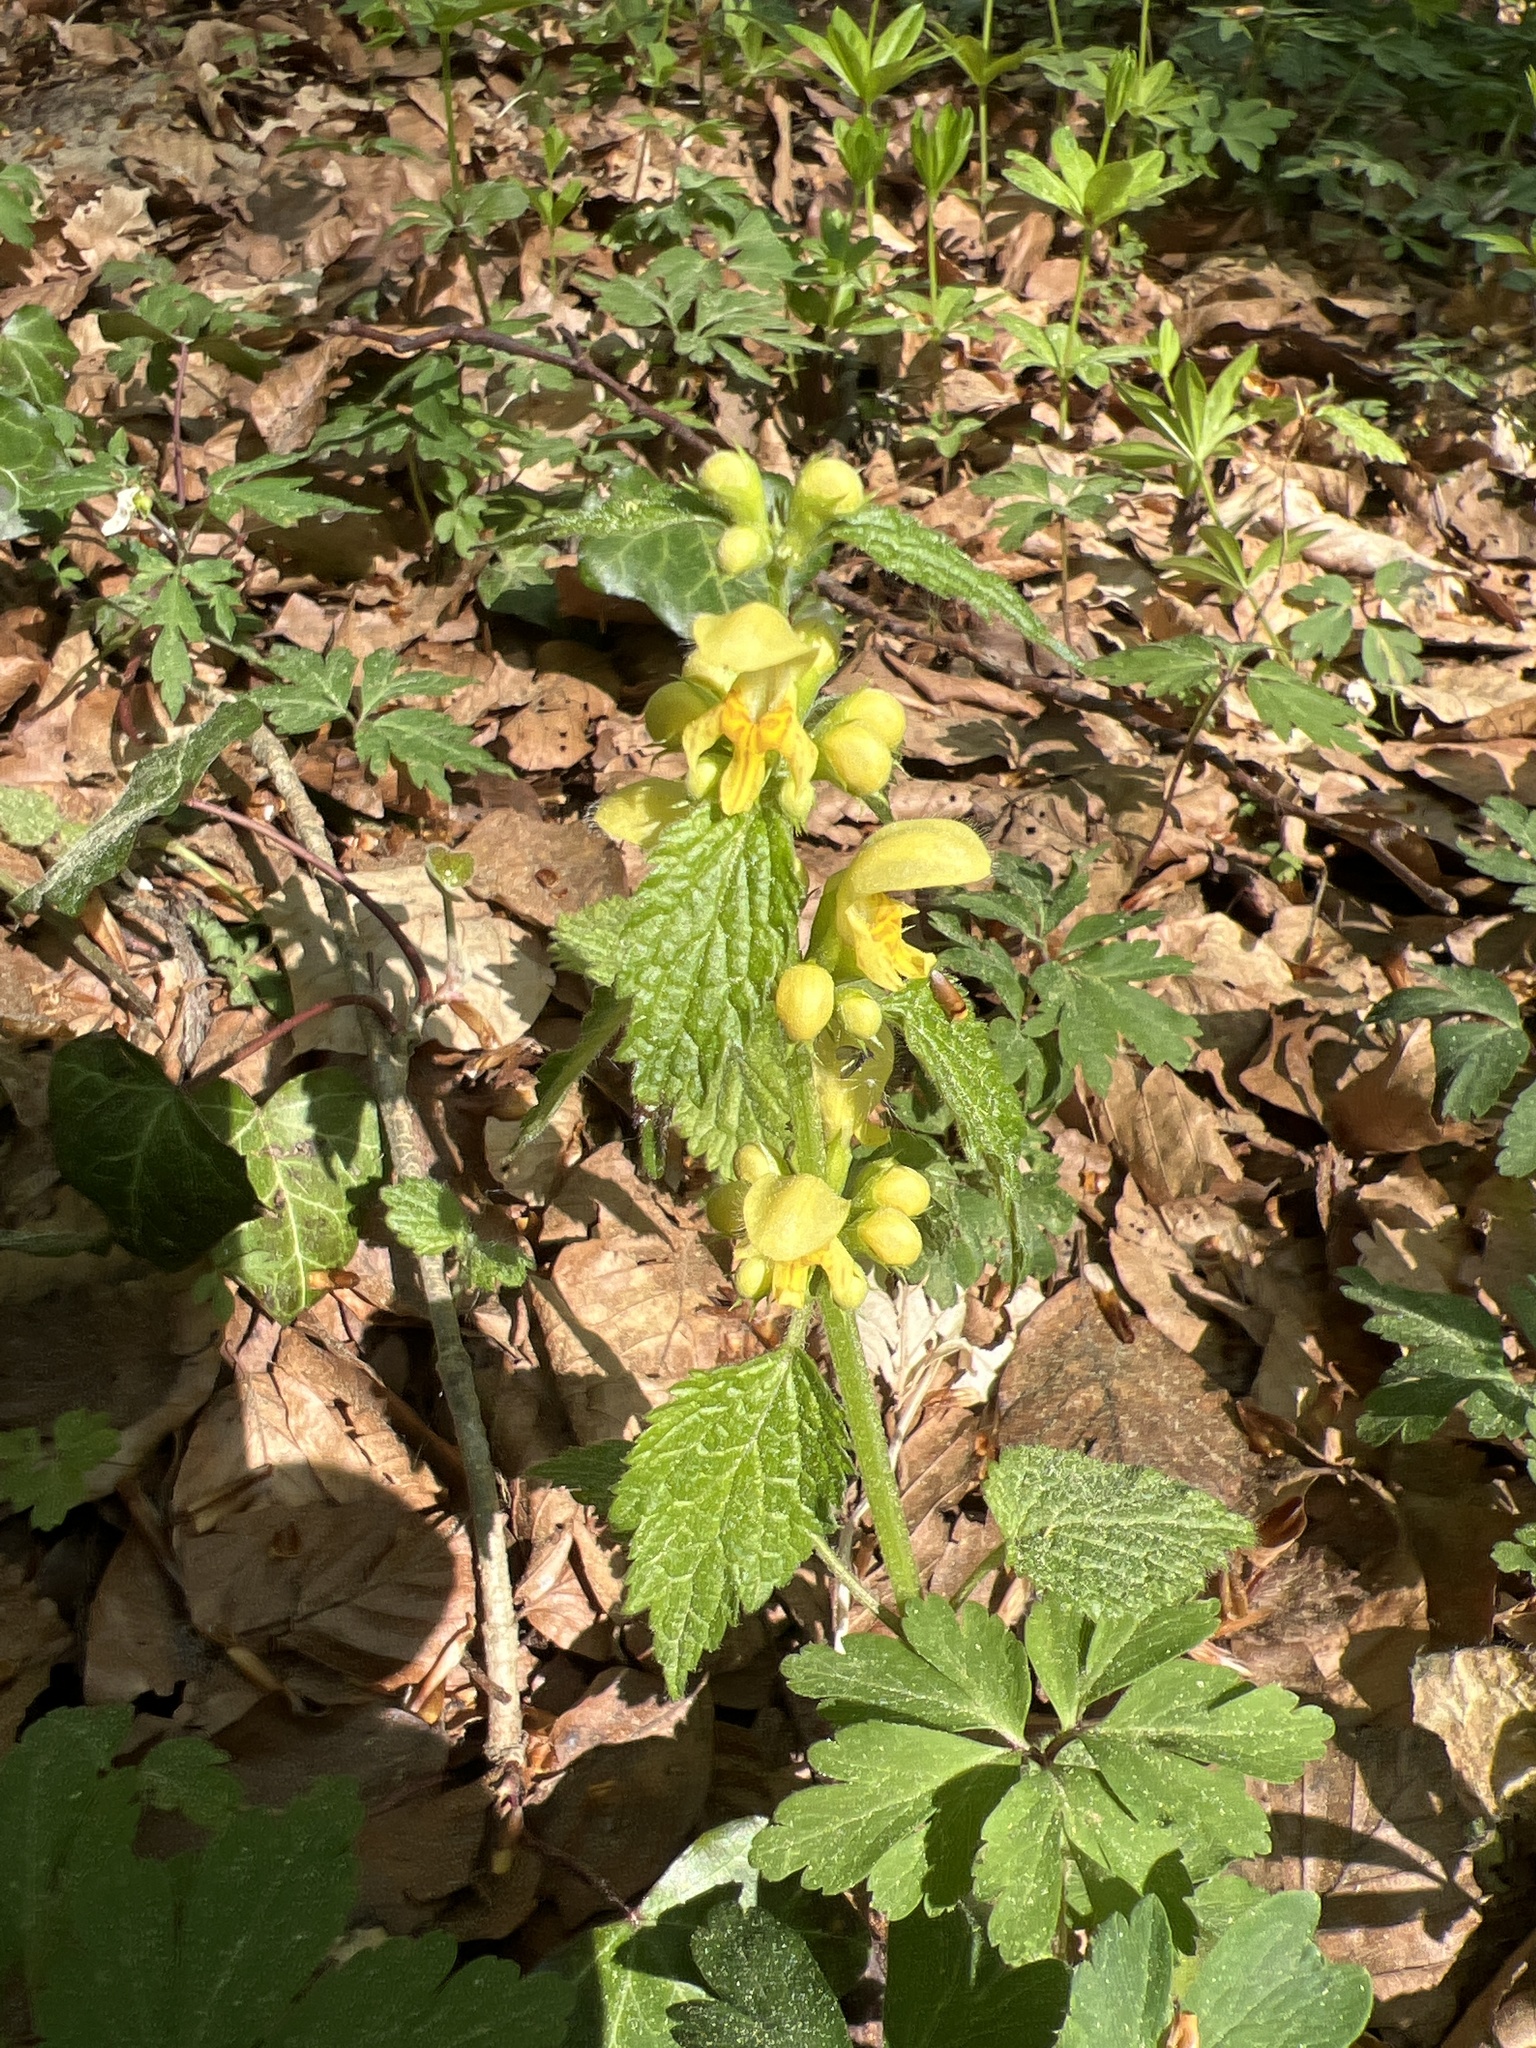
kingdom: Plantae
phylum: Tracheophyta
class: Magnoliopsida
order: Lamiales
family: Lamiaceae
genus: Lamium
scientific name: Lamium galeobdolon
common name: Yellow archangel
